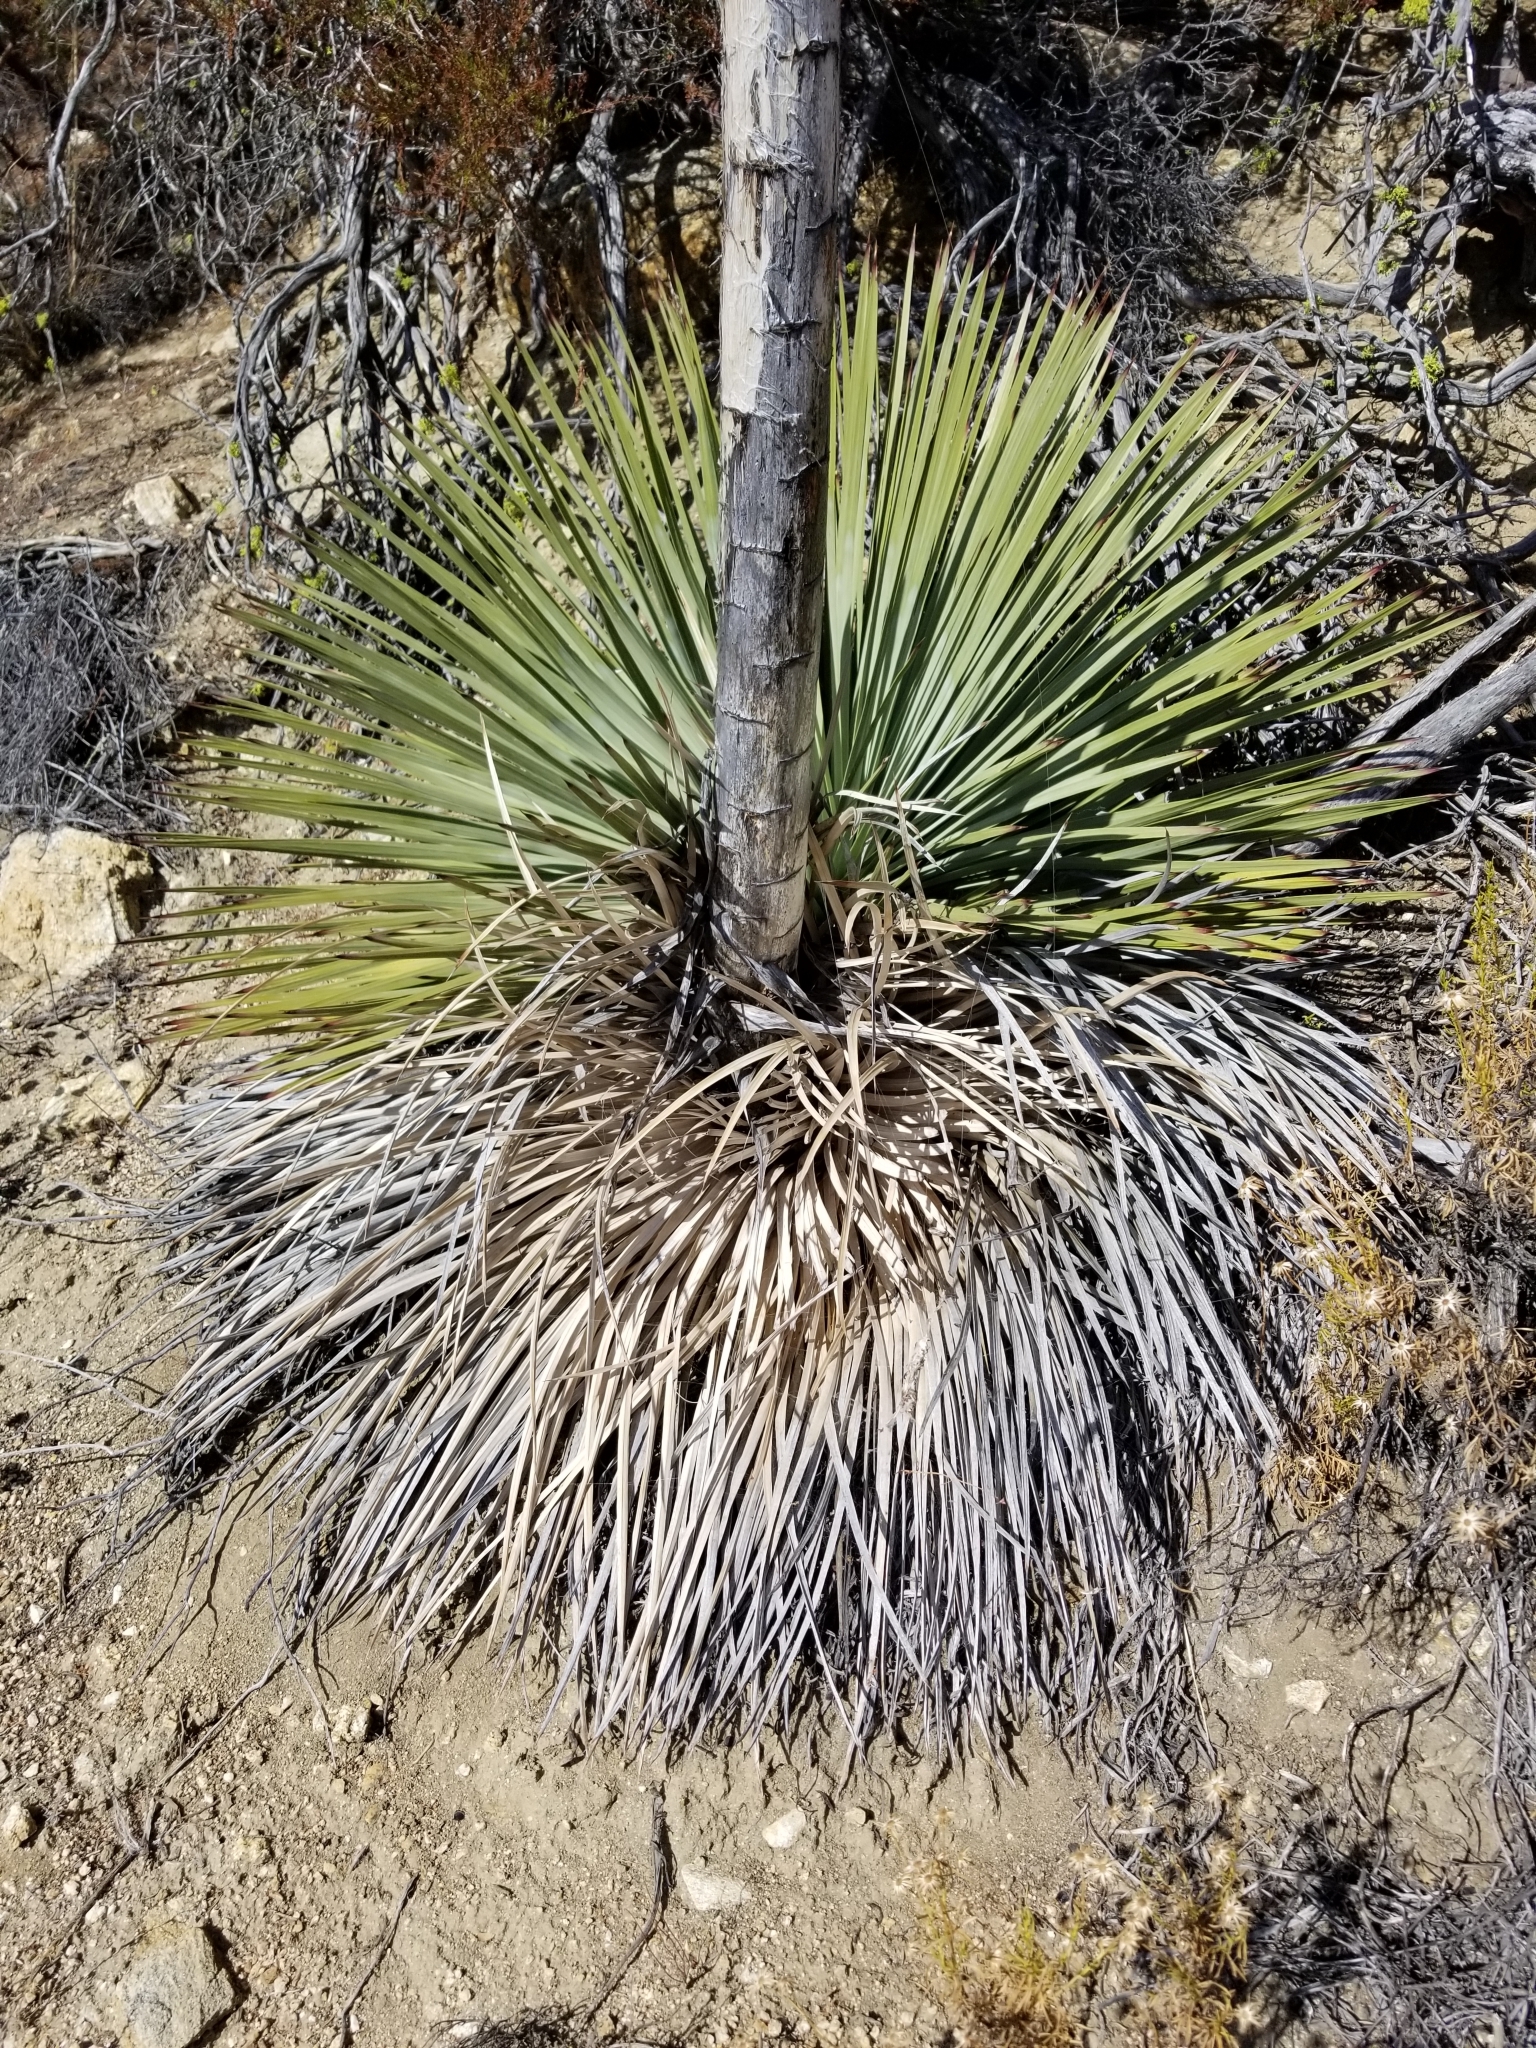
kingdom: Plantae
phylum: Tracheophyta
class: Liliopsida
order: Asparagales
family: Asparagaceae
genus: Hesperoyucca
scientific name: Hesperoyucca whipplei
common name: Our lord's-candle
